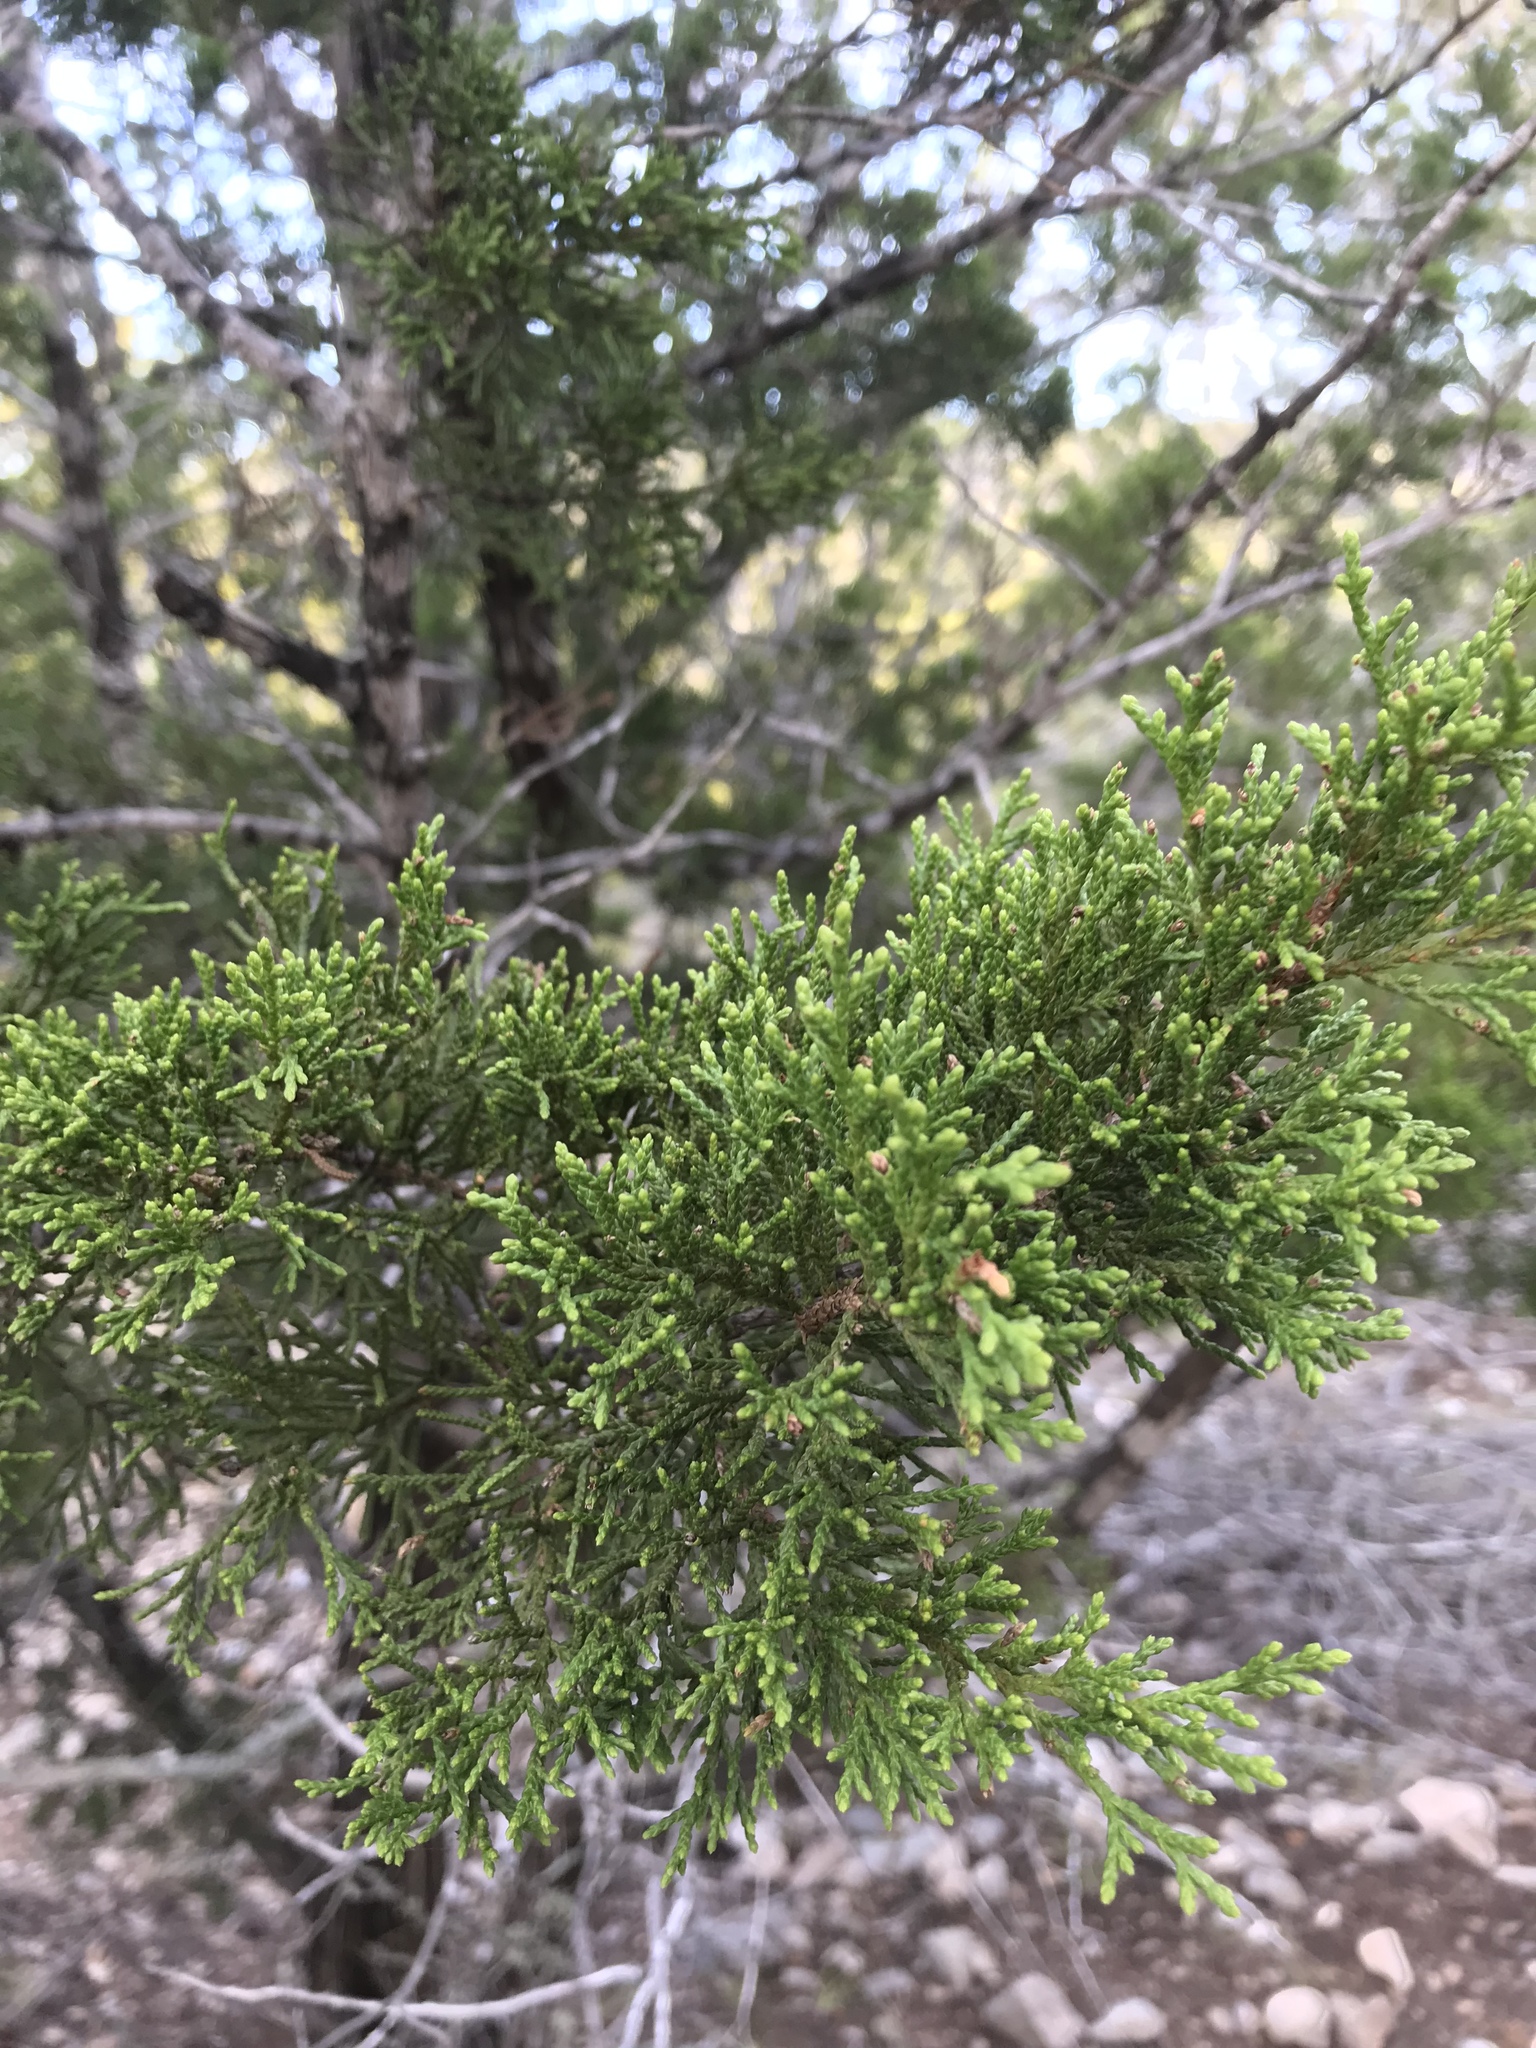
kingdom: Plantae
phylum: Tracheophyta
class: Pinopsida
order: Pinales
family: Cupressaceae
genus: Juniperus
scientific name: Juniperus ashei
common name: Mexican juniper
